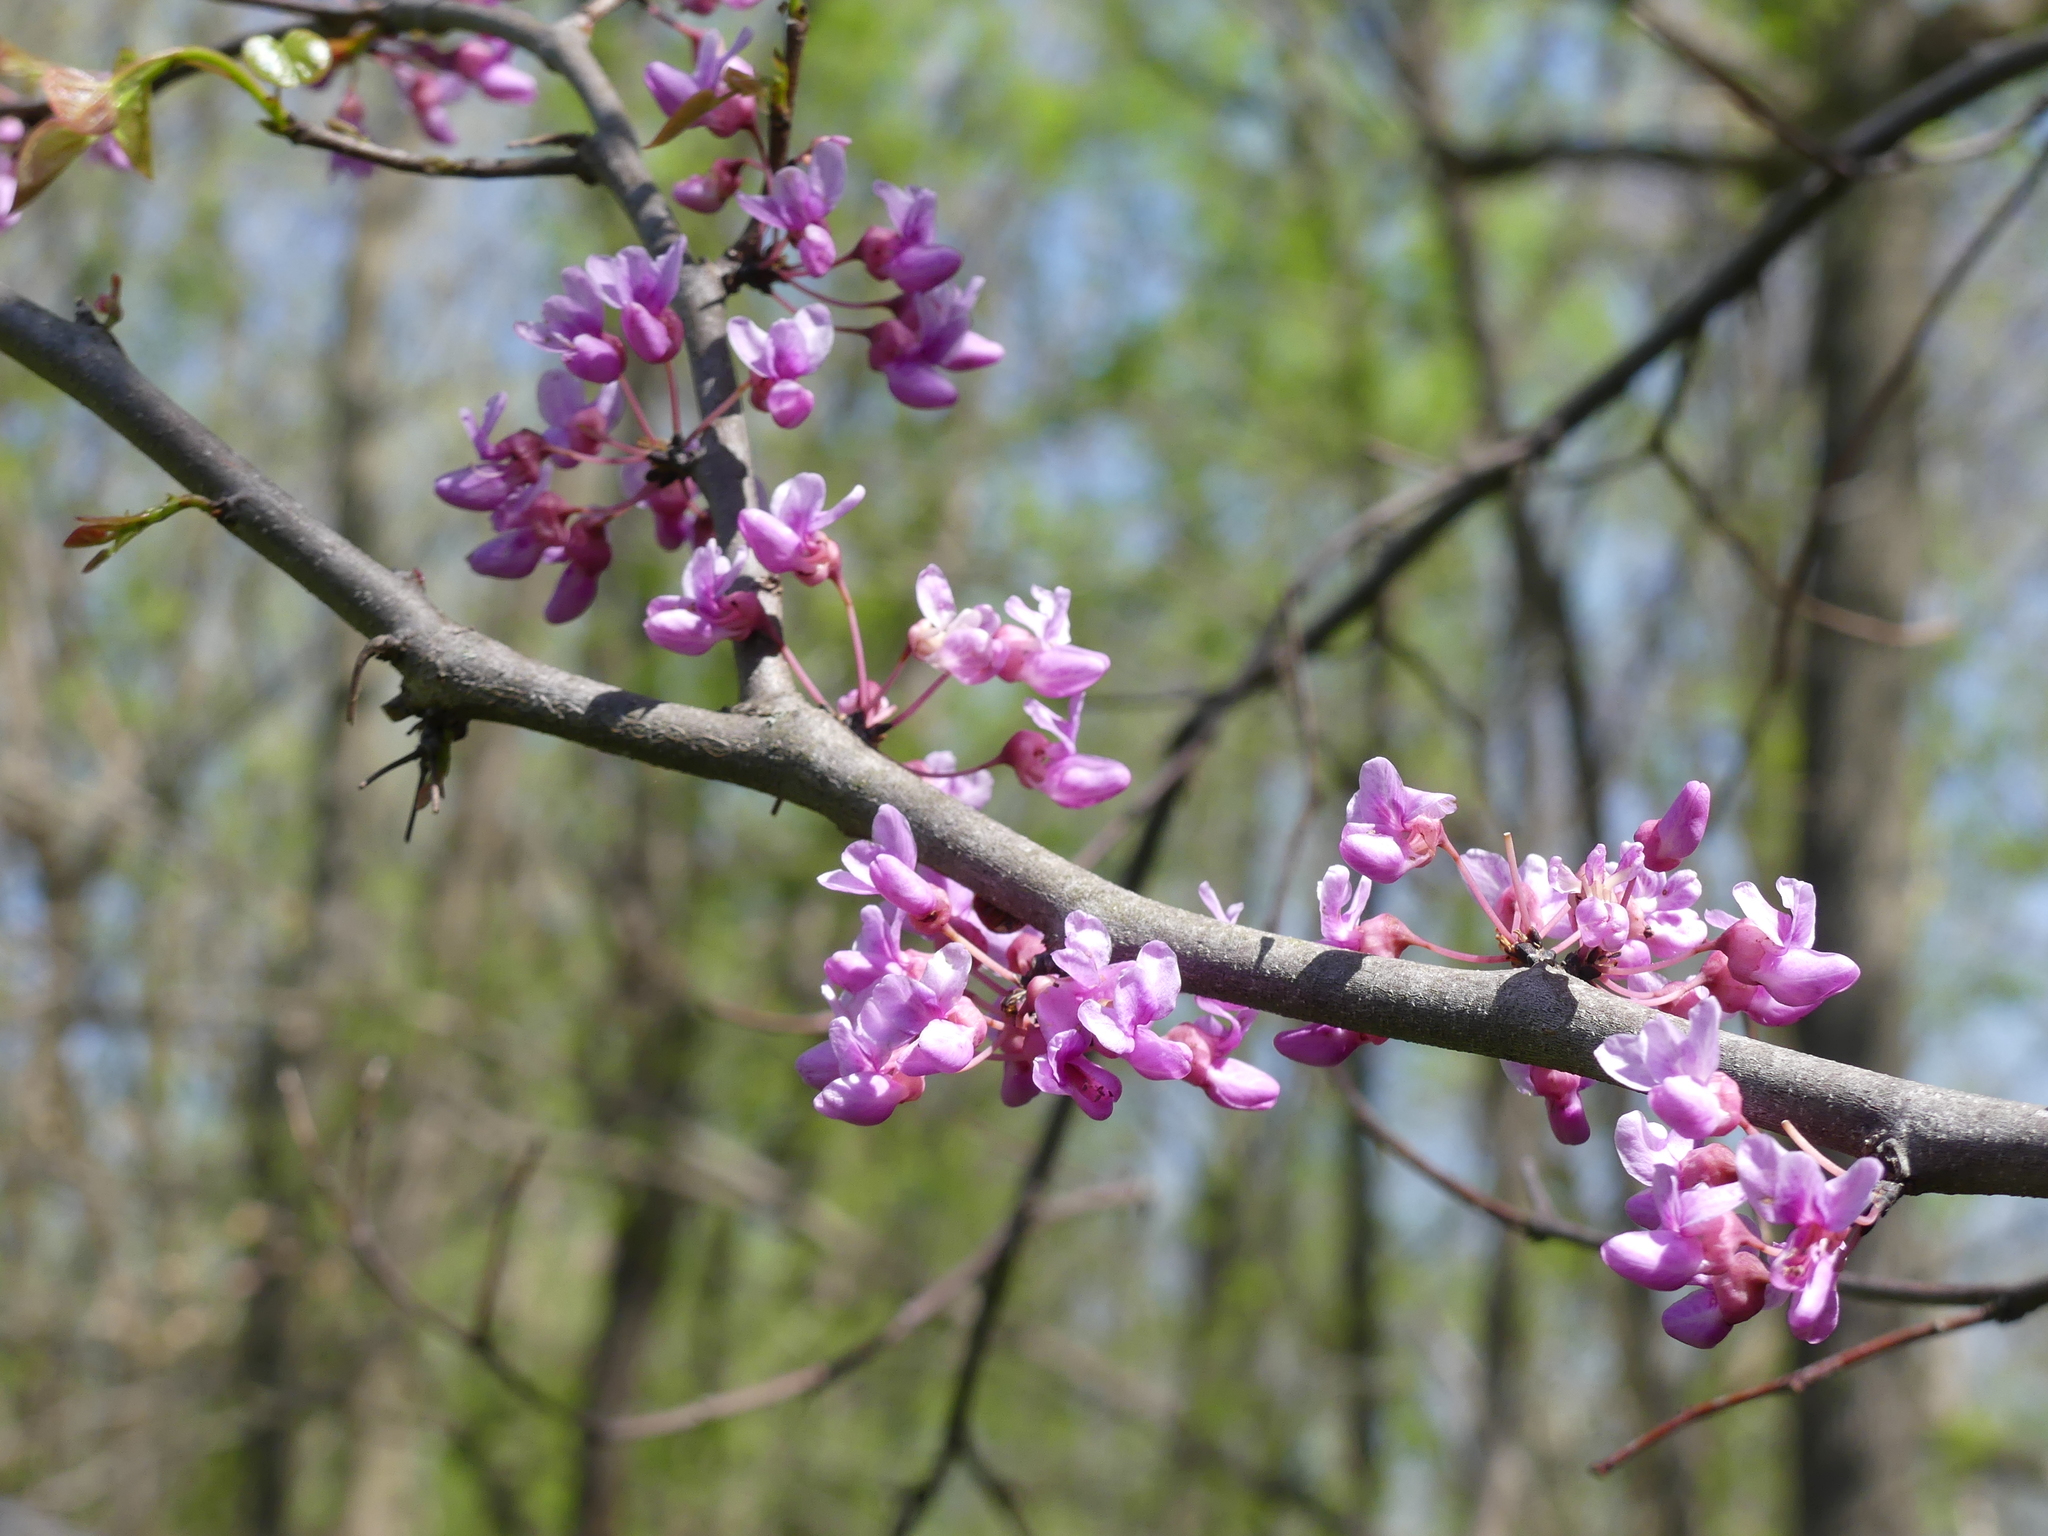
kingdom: Plantae
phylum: Tracheophyta
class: Magnoliopsida
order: Fabales
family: Fabaceae
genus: Cercis
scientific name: Cercis canadensis
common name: Eastern redbud
